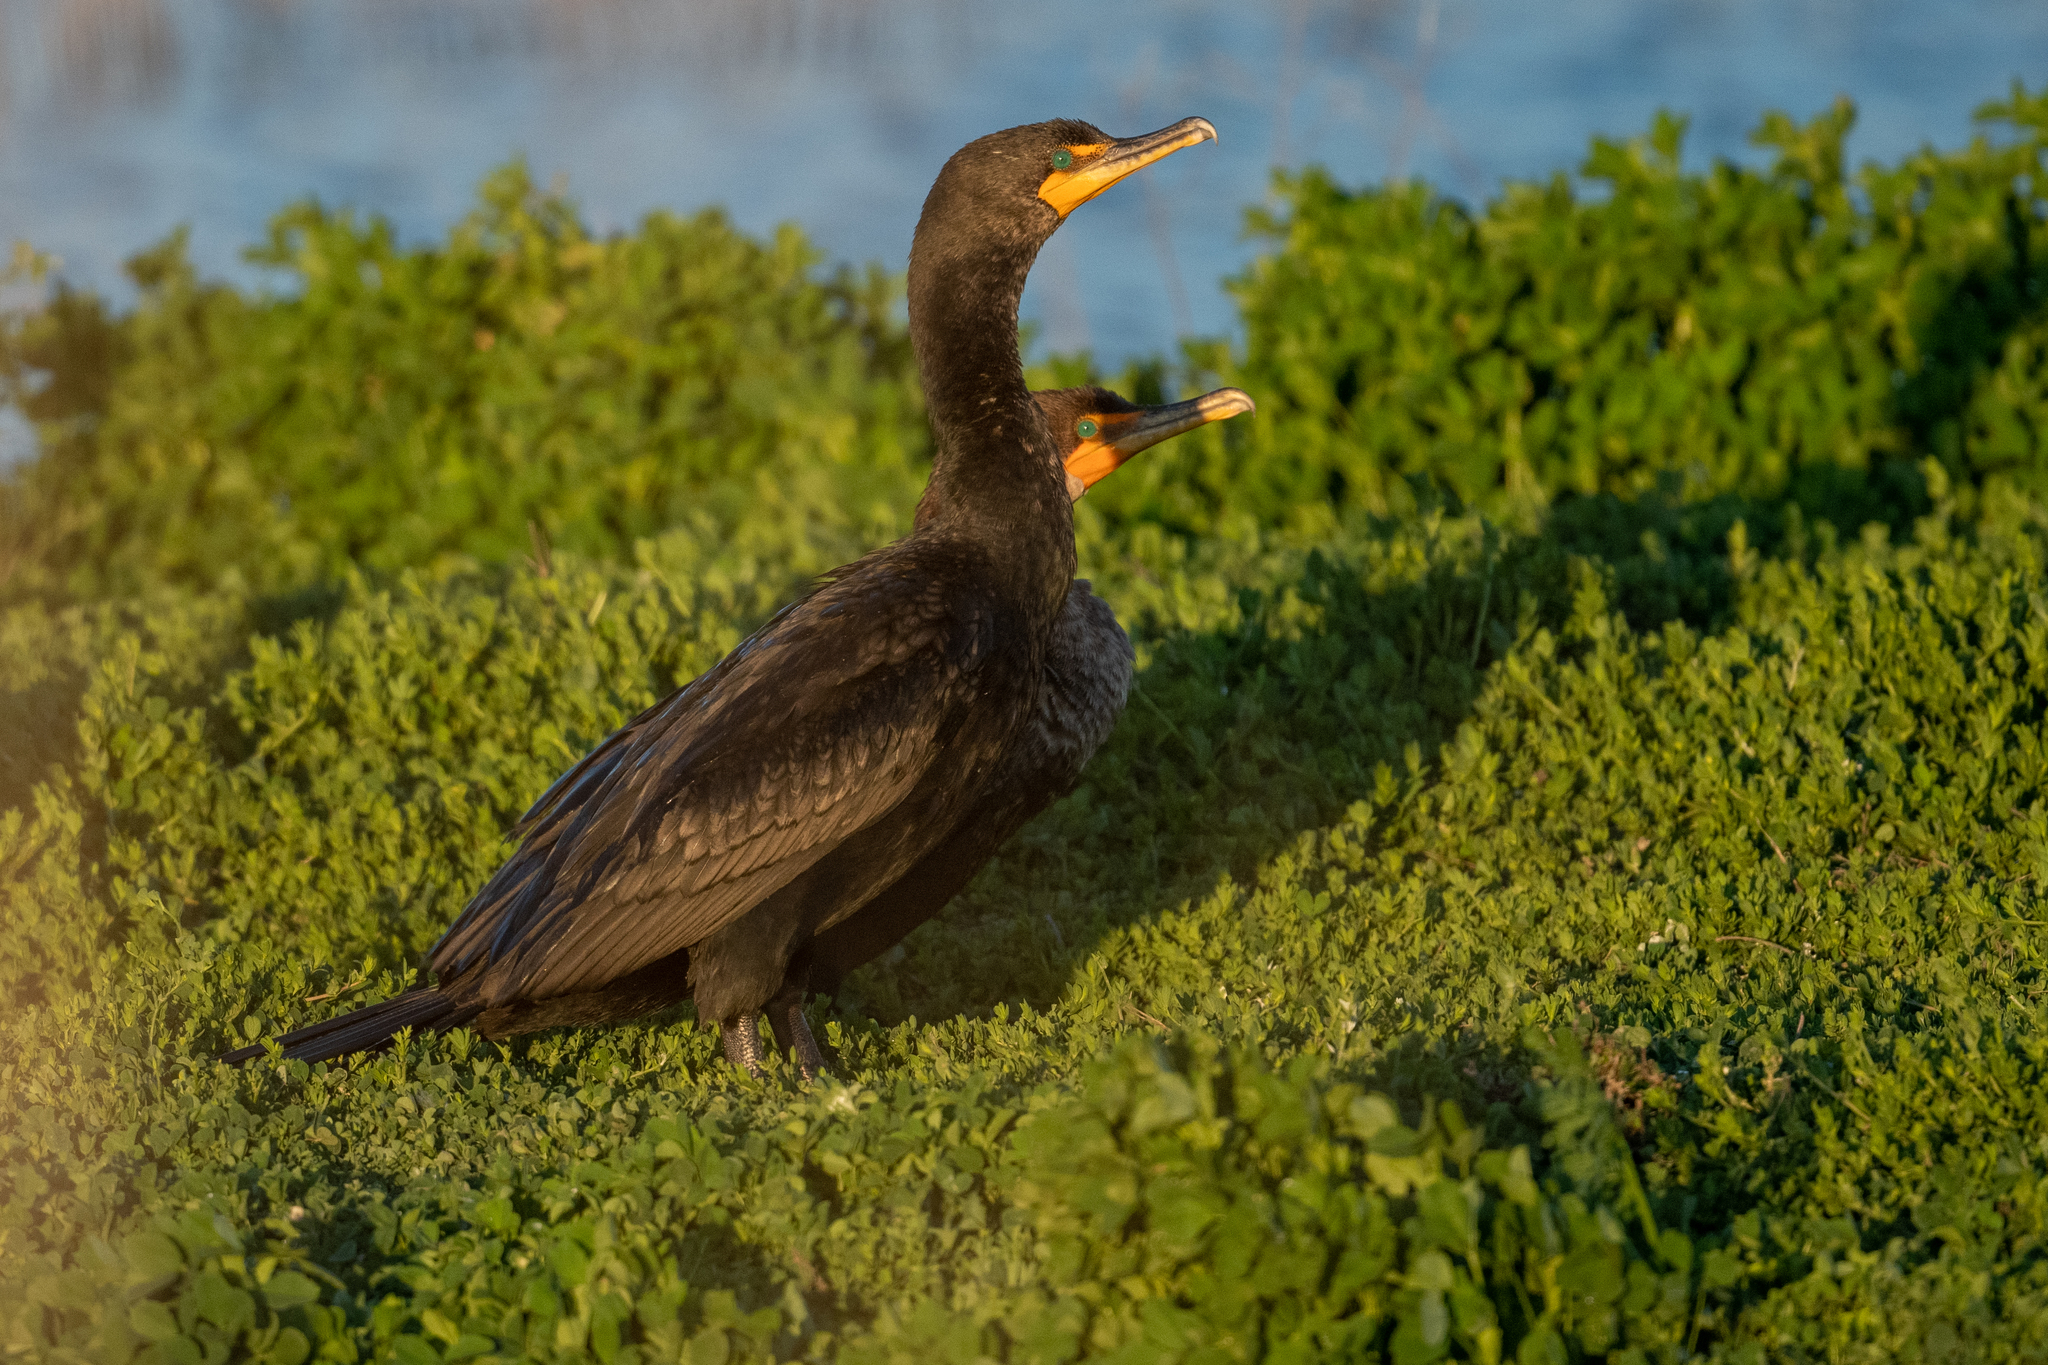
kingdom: Animalia
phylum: Chordata
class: Aves
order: Suliformes
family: Phalacrocoracidae
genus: Phalacrocorax
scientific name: Phalacrocorax auritus
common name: Double-crested cormorant
